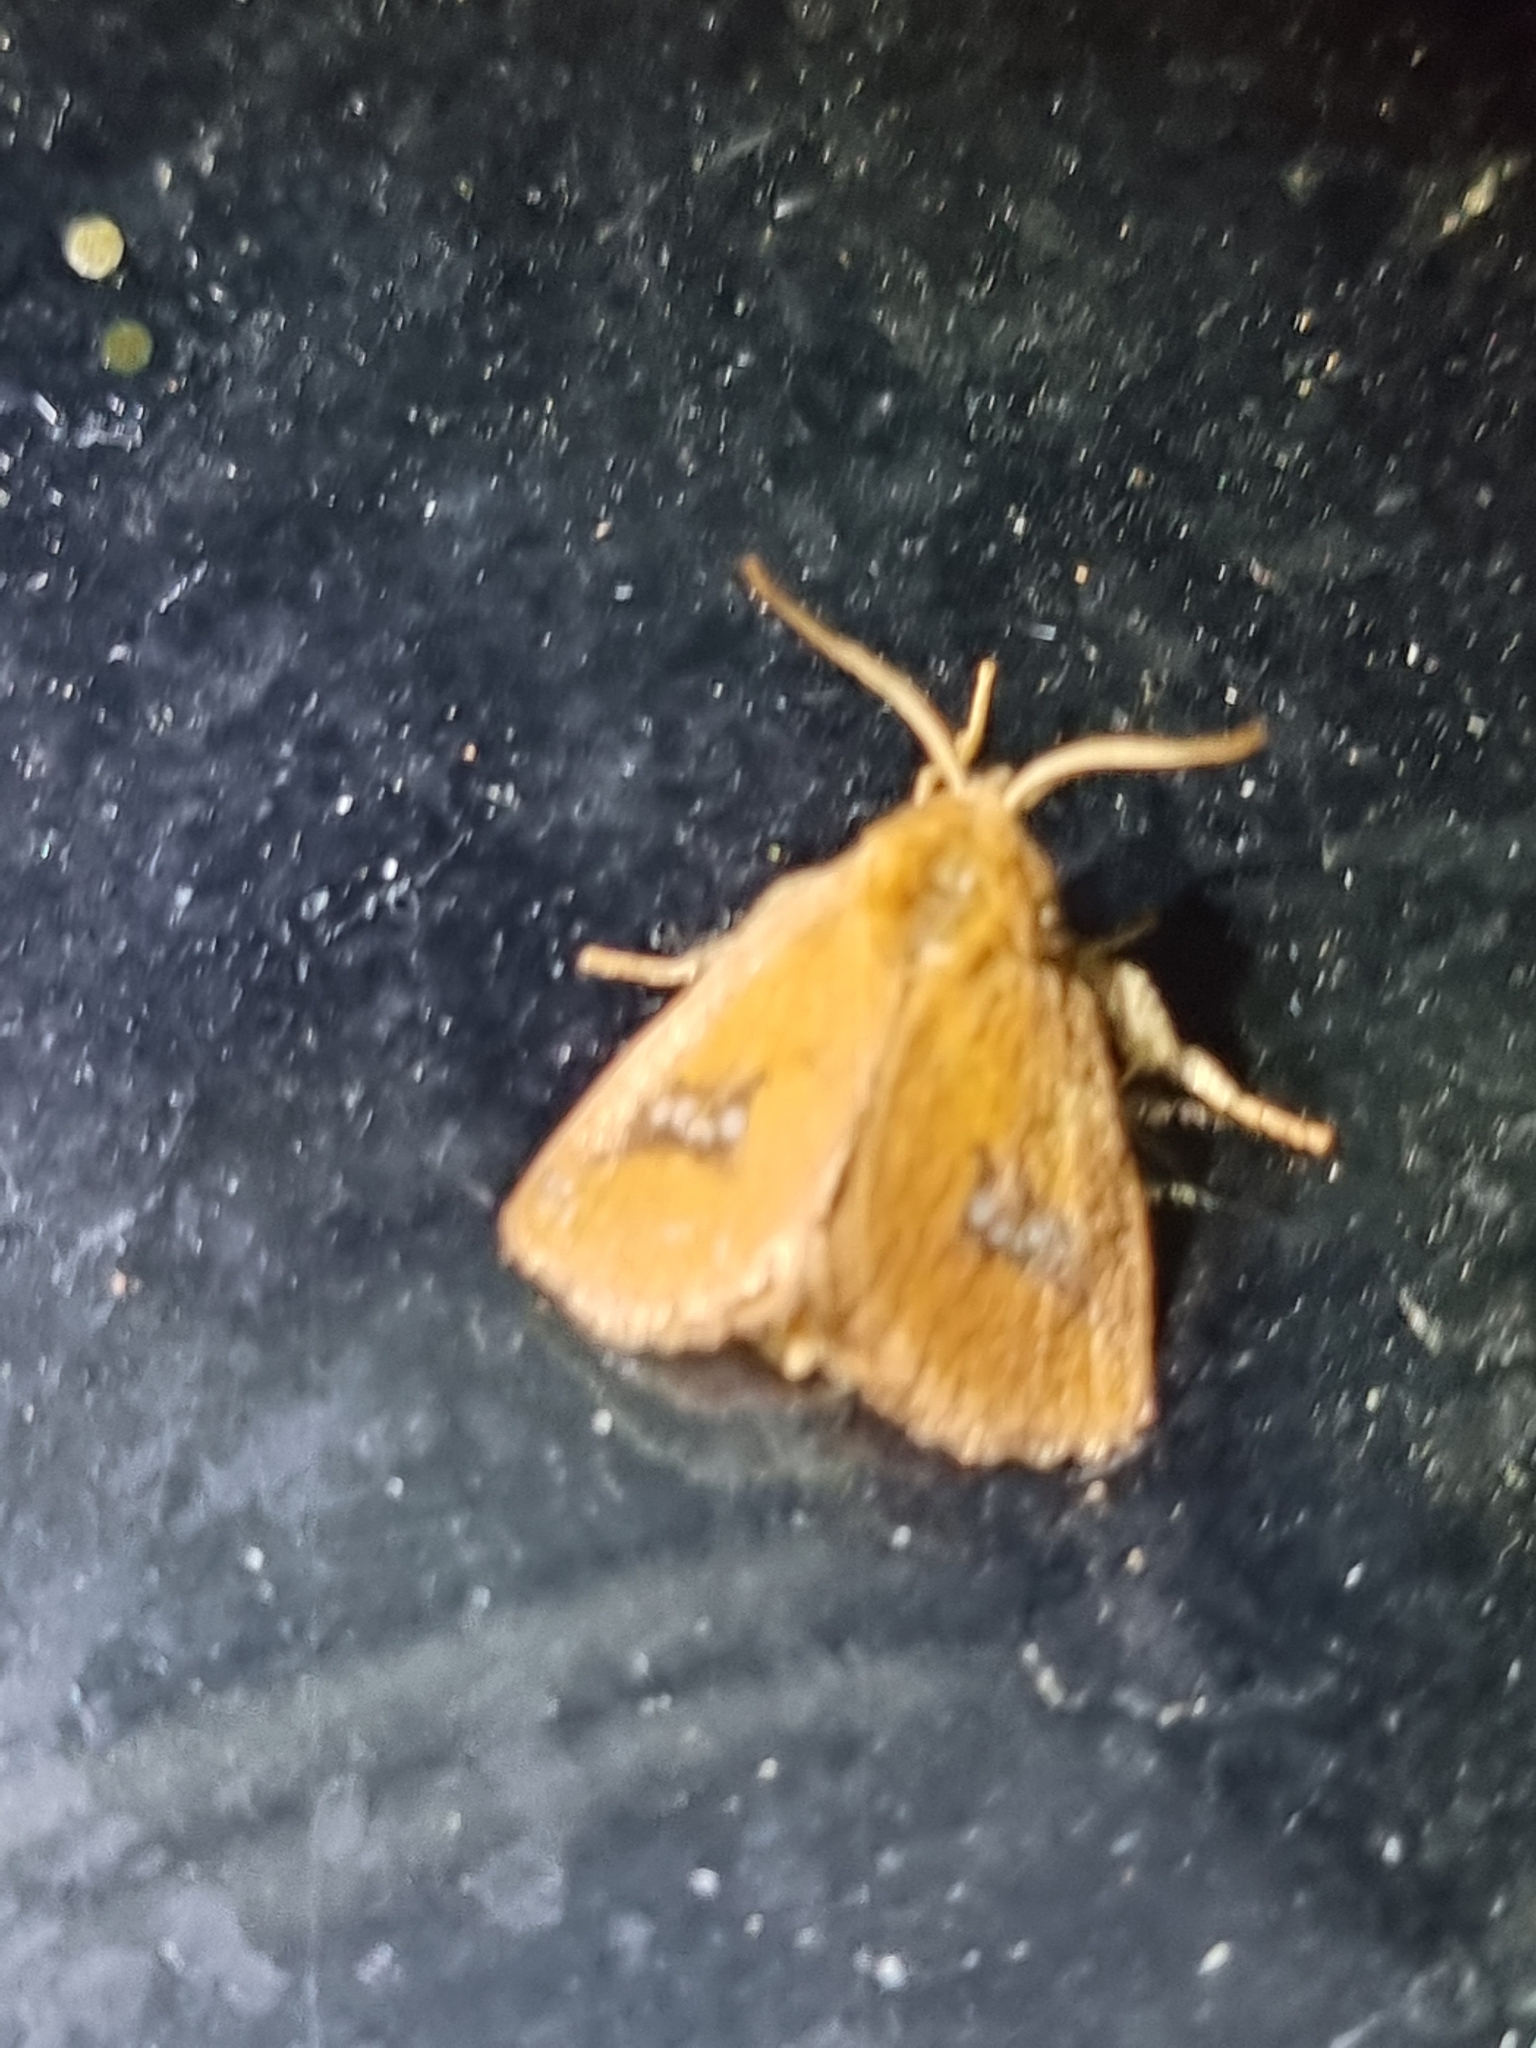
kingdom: Animalia
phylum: Arthropoda
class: Insecta
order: Lepidoptera
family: Limacodidae
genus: Hedraea
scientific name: Hedraea quadridens
